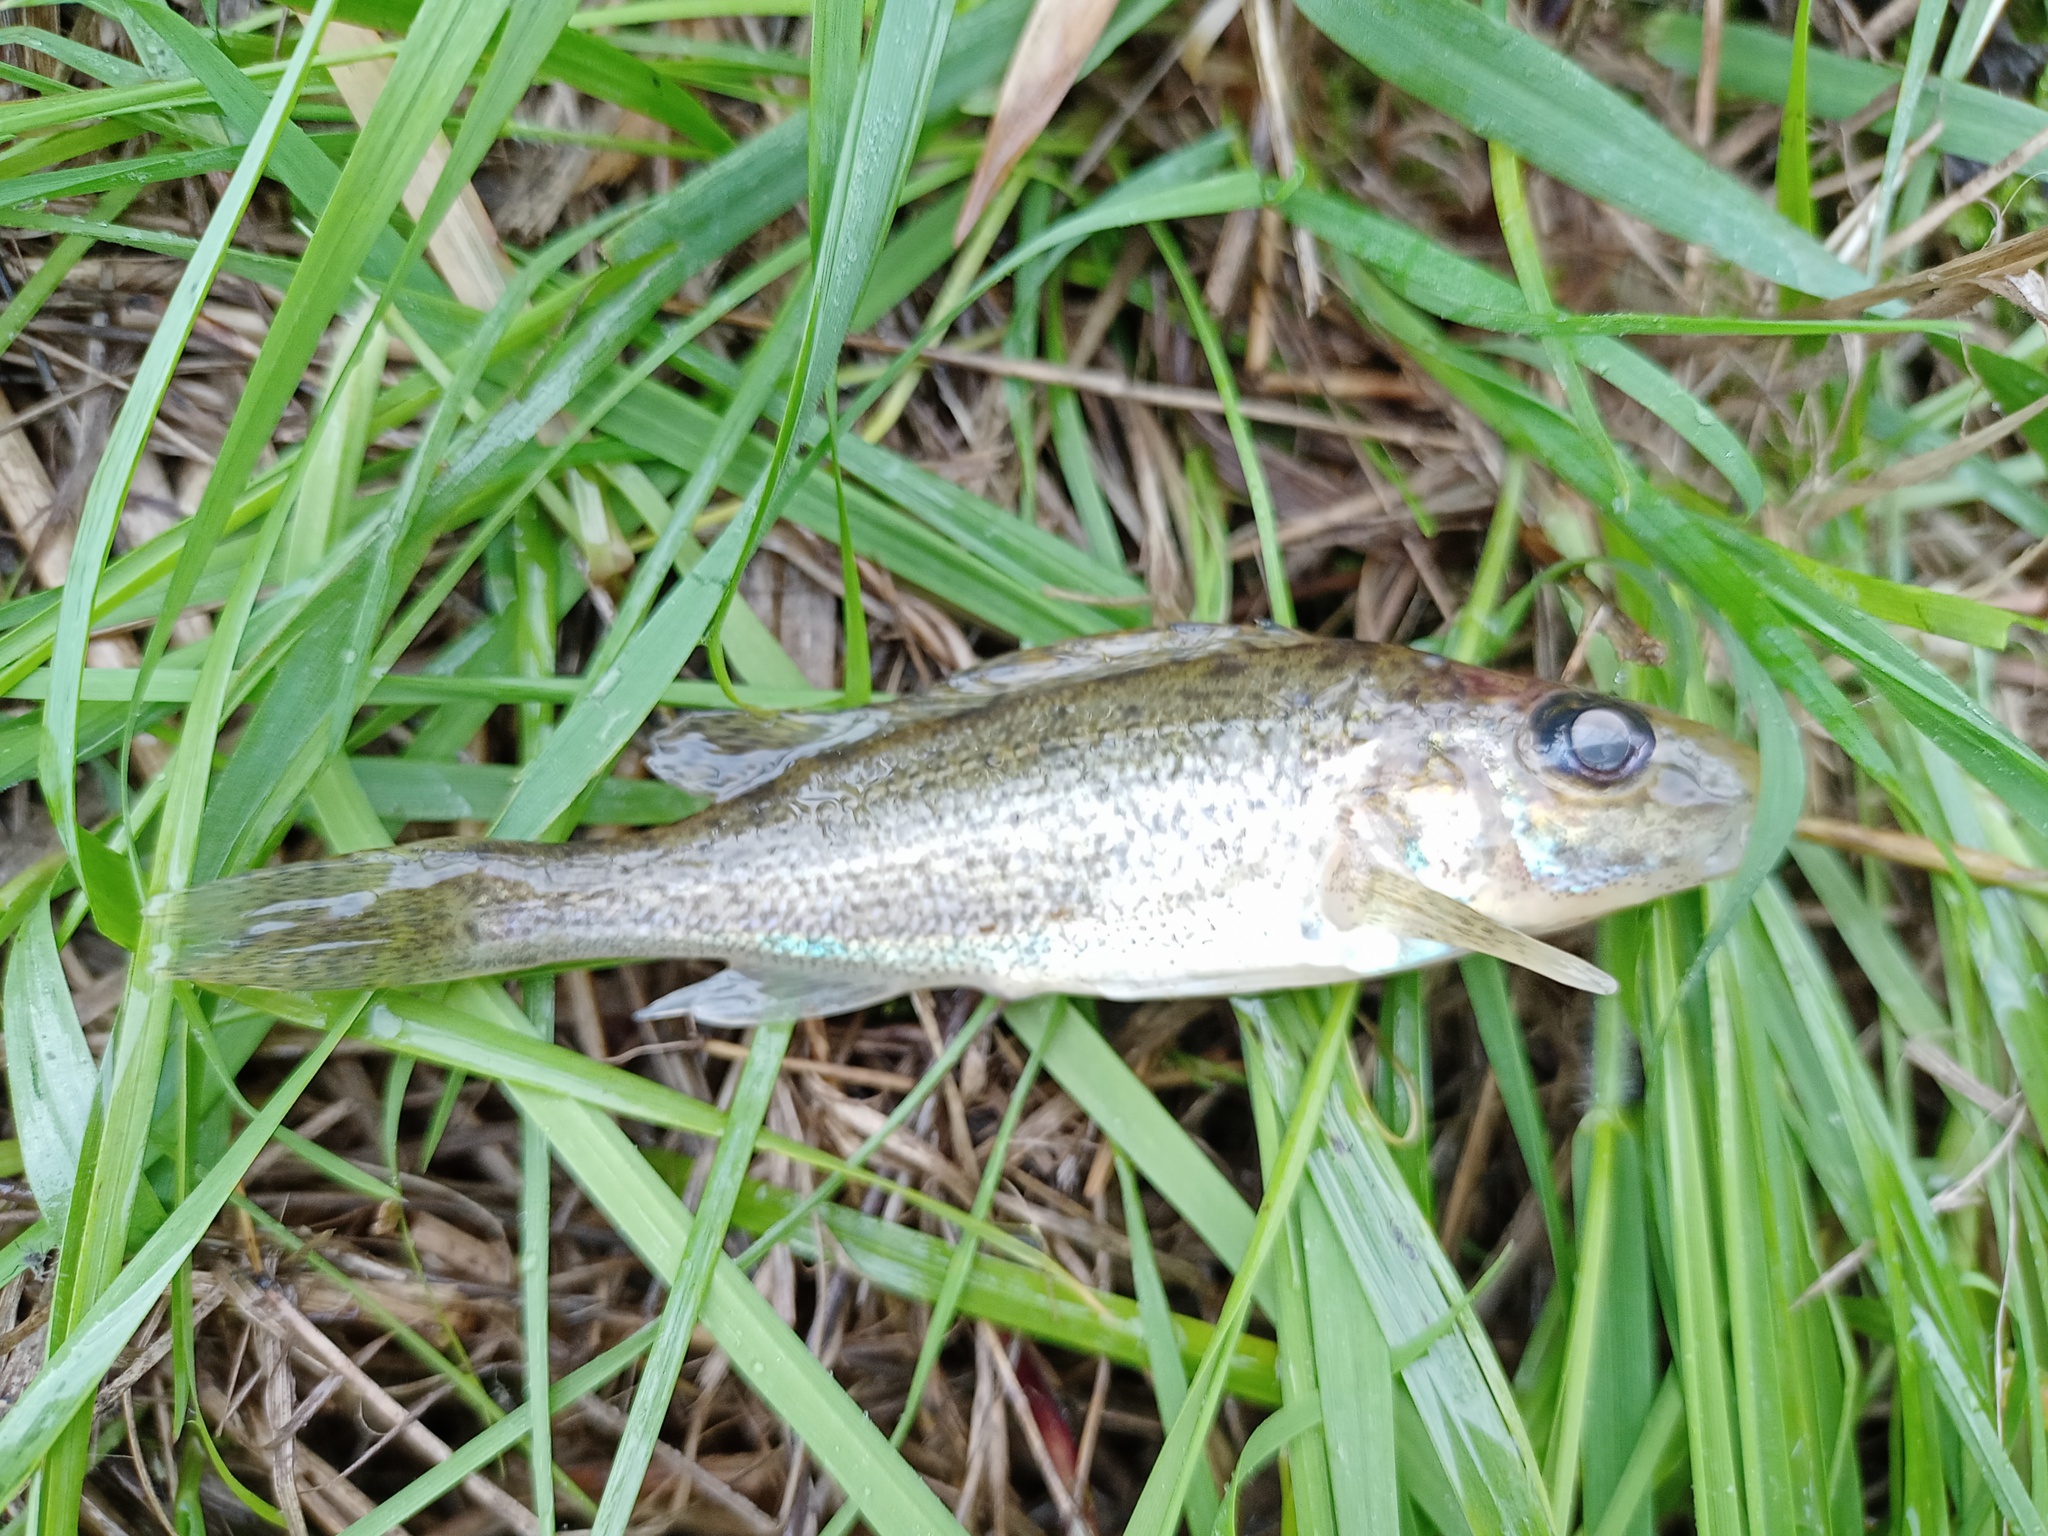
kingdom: Animalia
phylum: Chordata
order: Perciformes
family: Percidae
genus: Gymnocephalus
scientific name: Gymnocephalus cernua
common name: Ruffe
